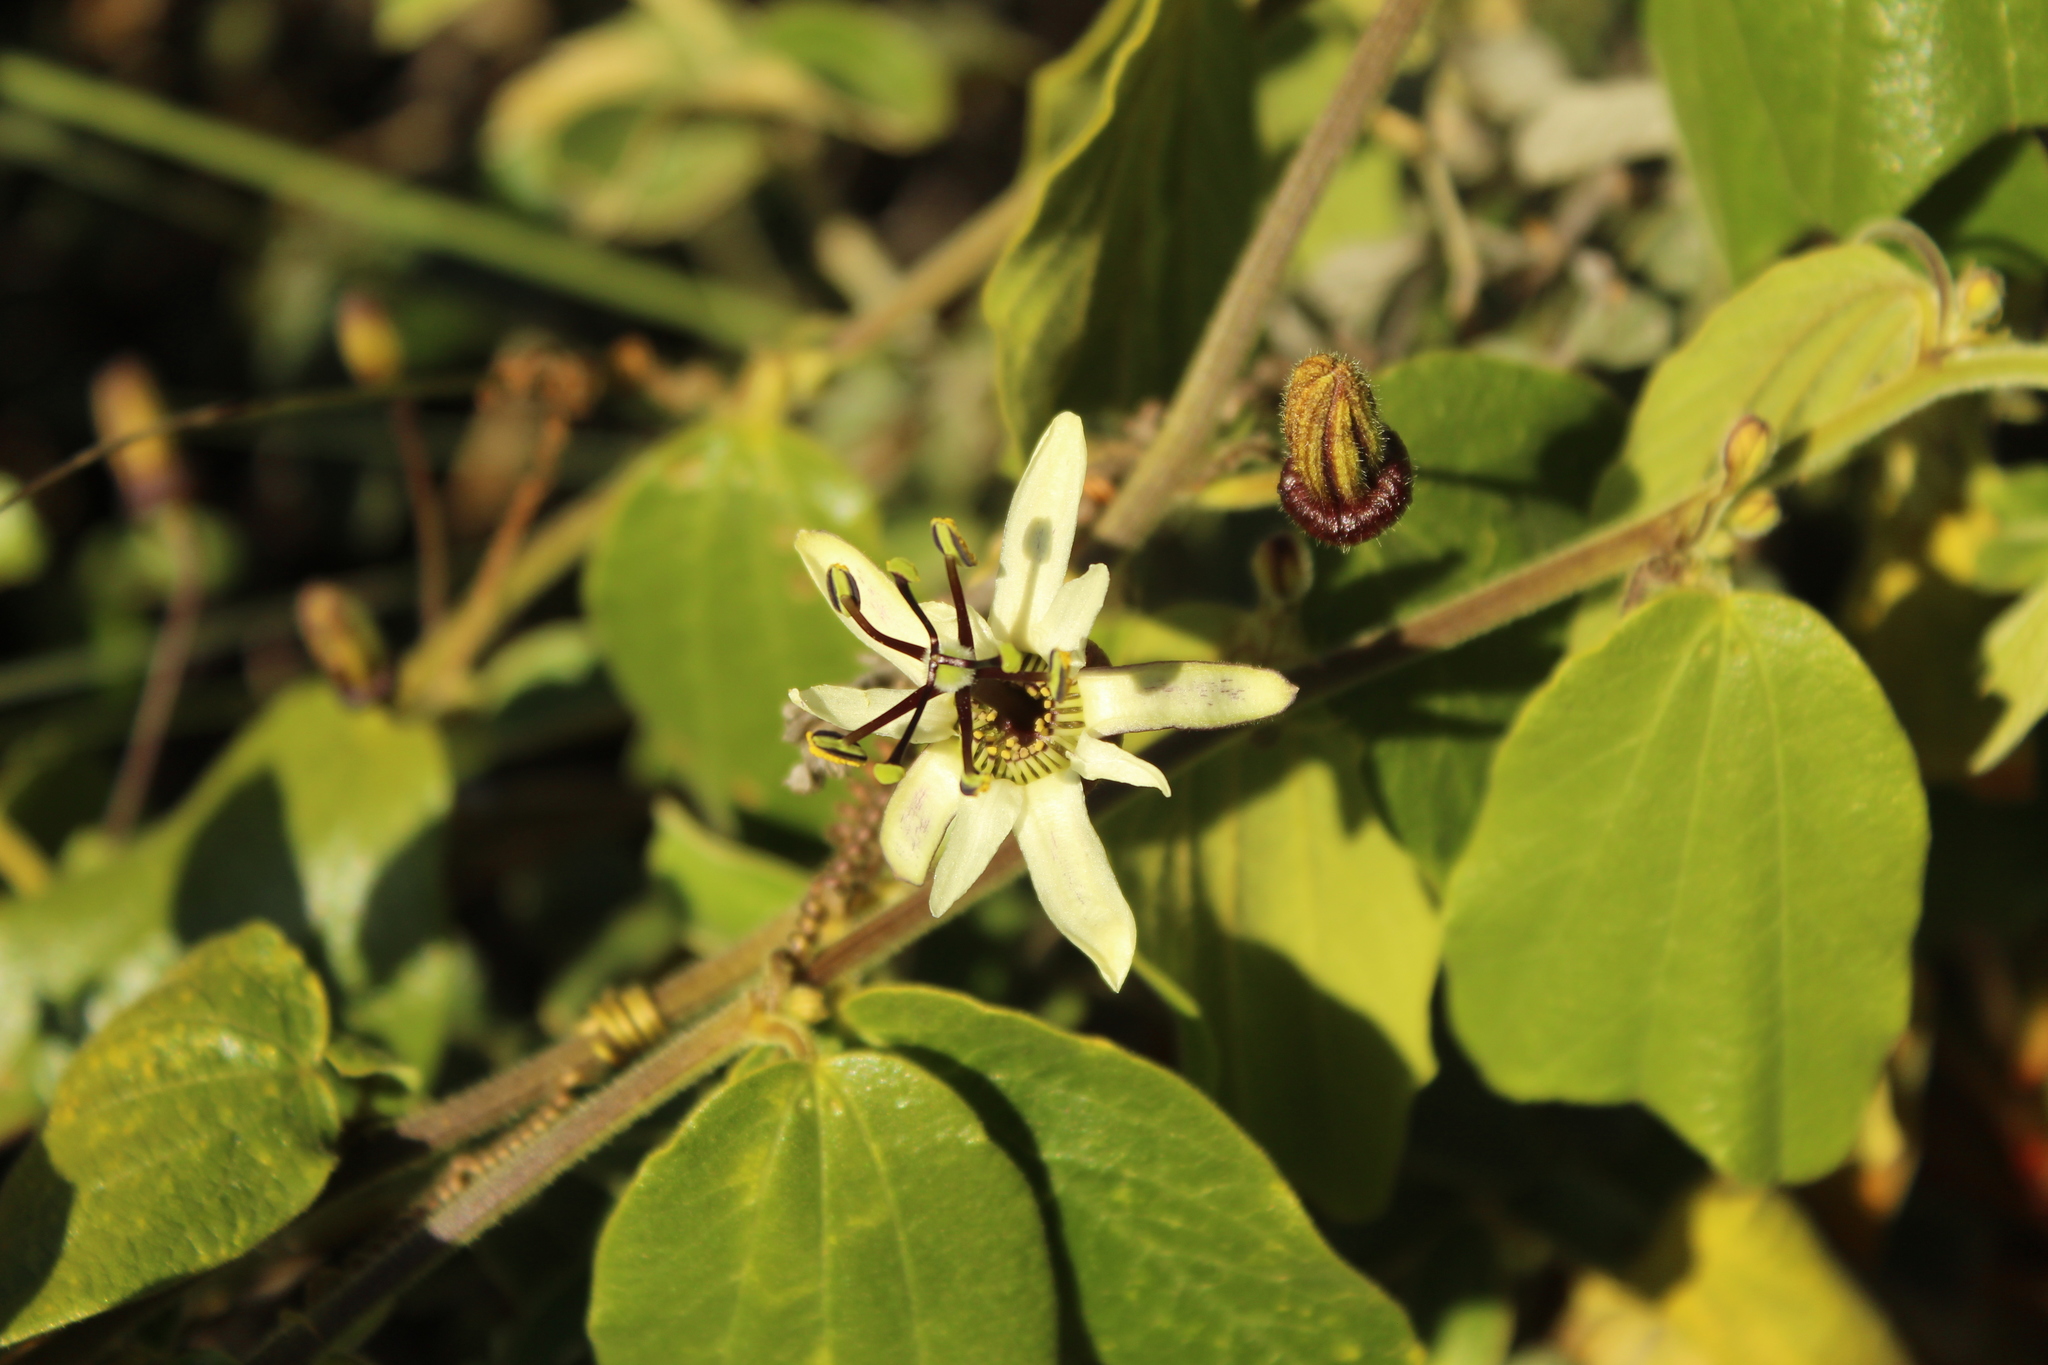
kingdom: Plantae
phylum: Tracheophyta
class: Magnoliopsida
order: Malpighiales
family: Passifloraceae
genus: Passiflora
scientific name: Passiflora bogotensis
